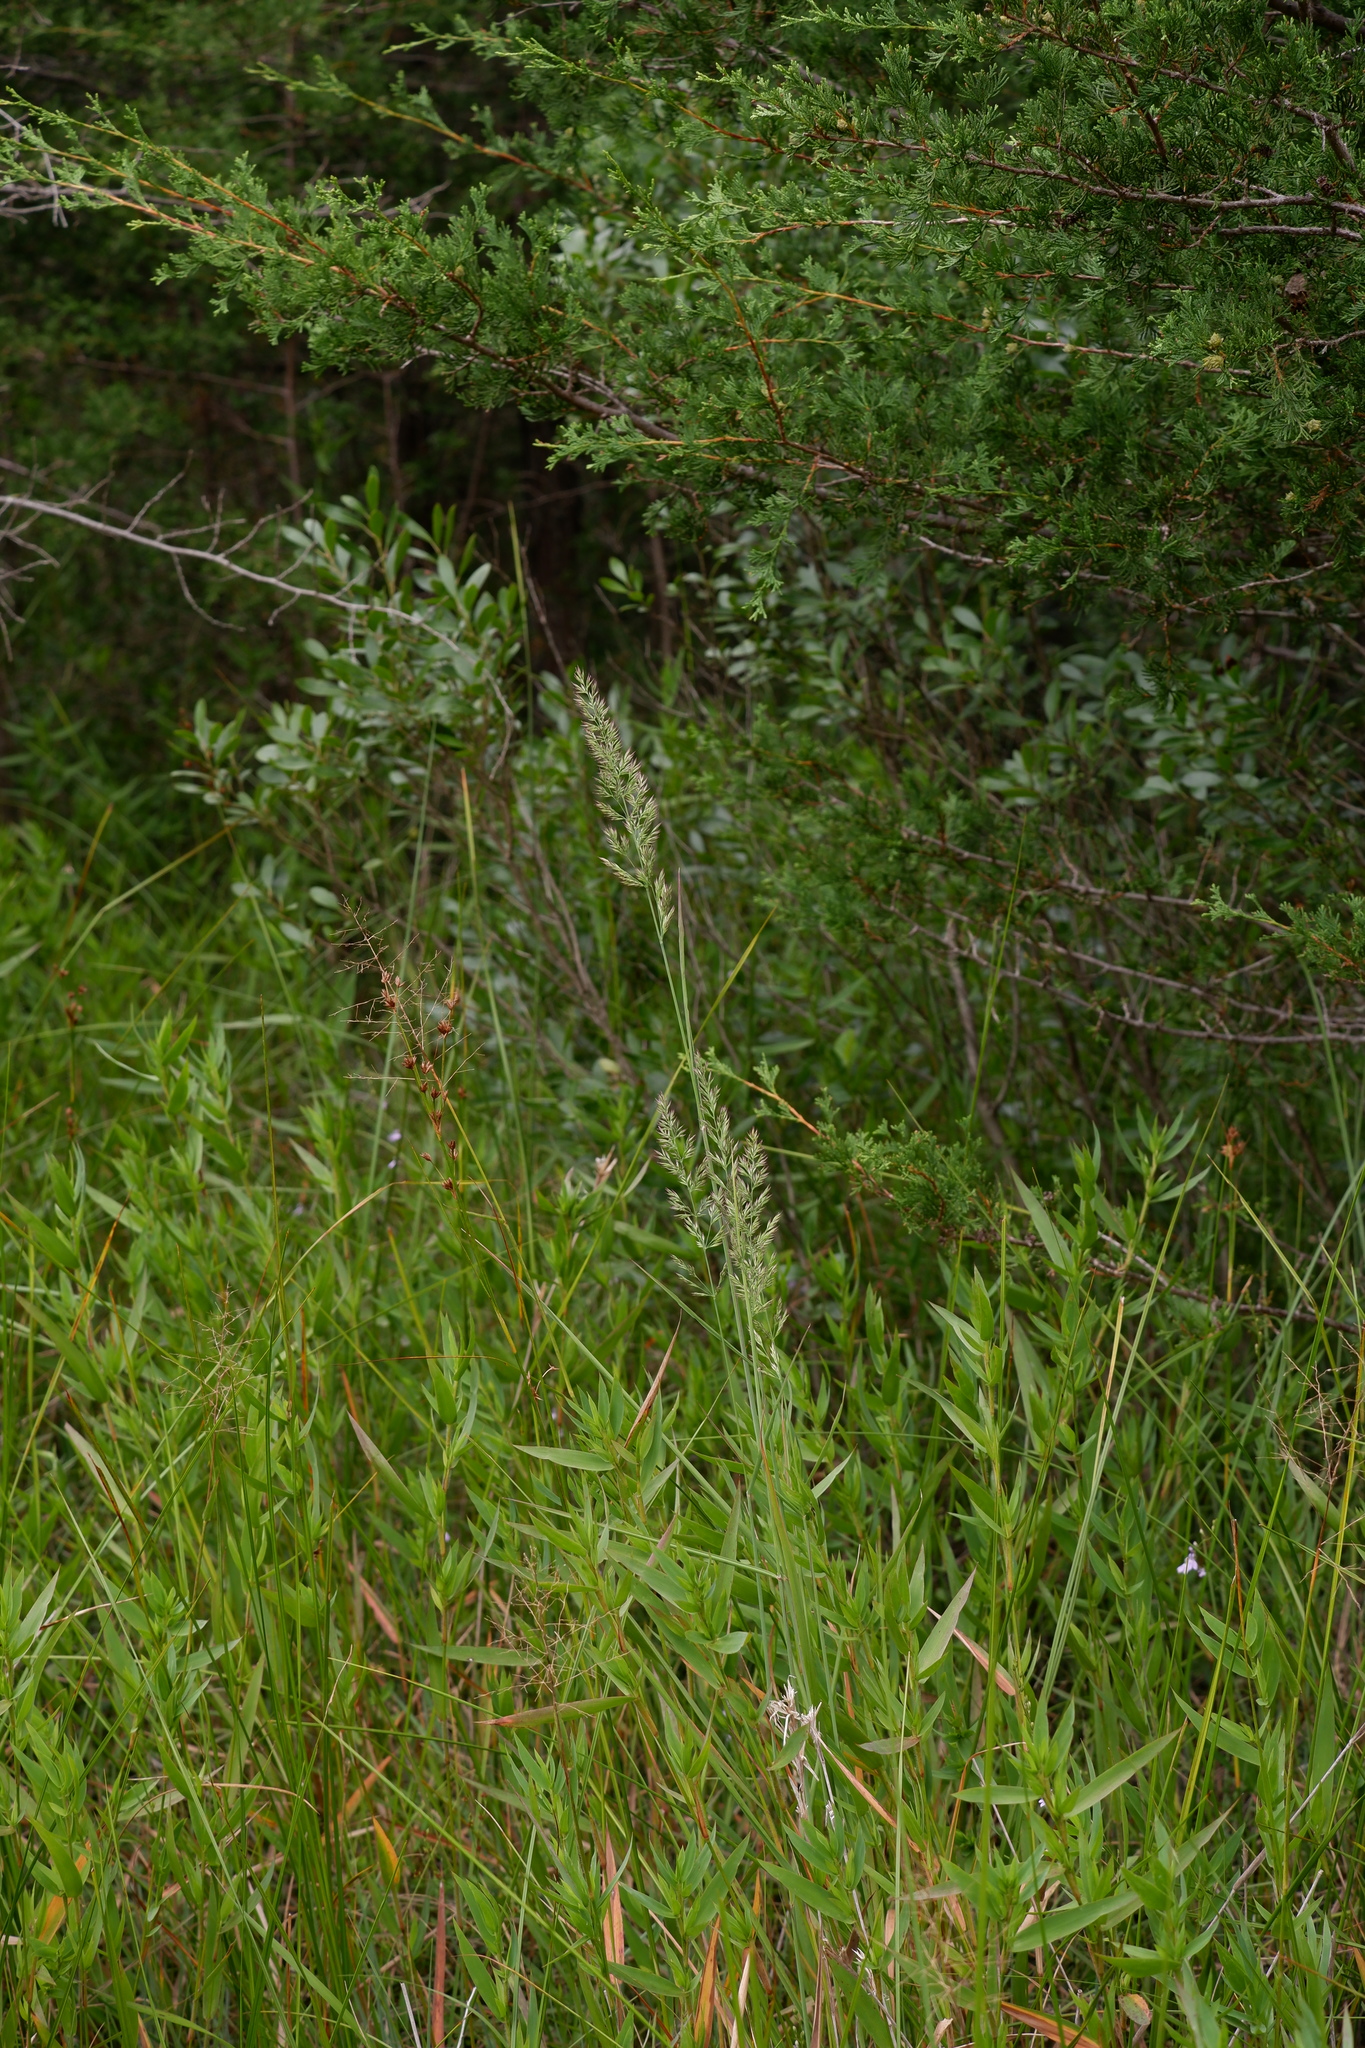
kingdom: Plantae
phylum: Tracheophyta
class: Liliopsida
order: Poales
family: Poaceae
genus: Greeneochloa
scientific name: Greeneochloa coarctata
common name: Small reedgrass
